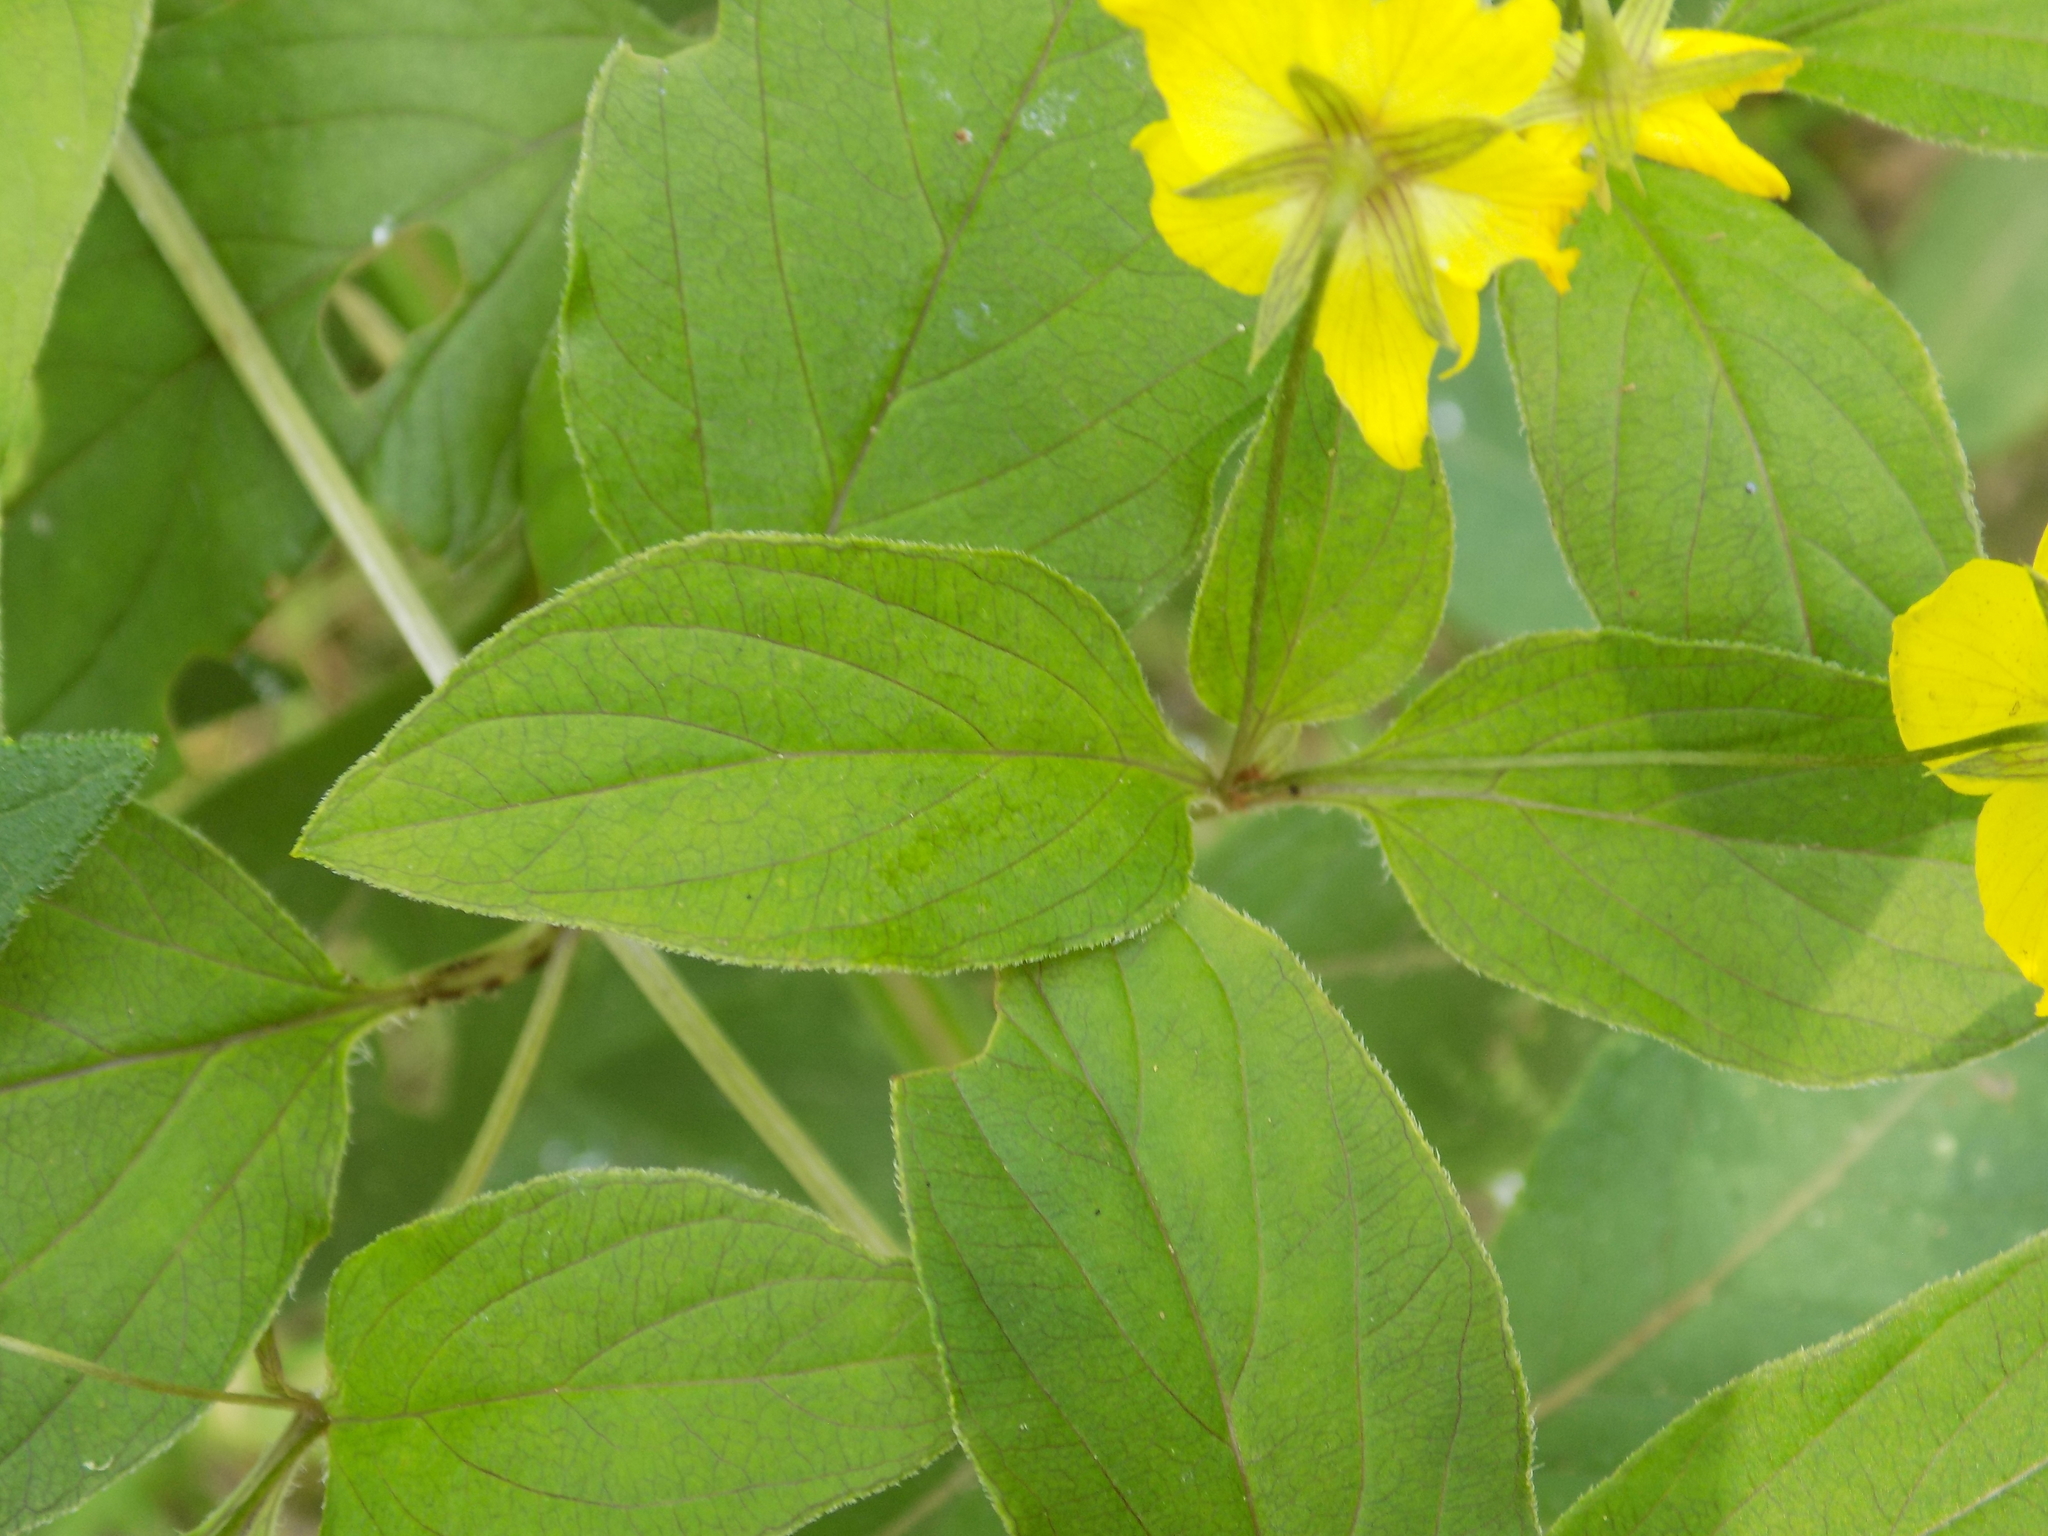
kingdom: Plantae
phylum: Tracheophyta
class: Magnoliopsida
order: Ericales
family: Primulaceae
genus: Lysimachia
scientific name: Lysimachia ciliata
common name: Fringed loosestrife
